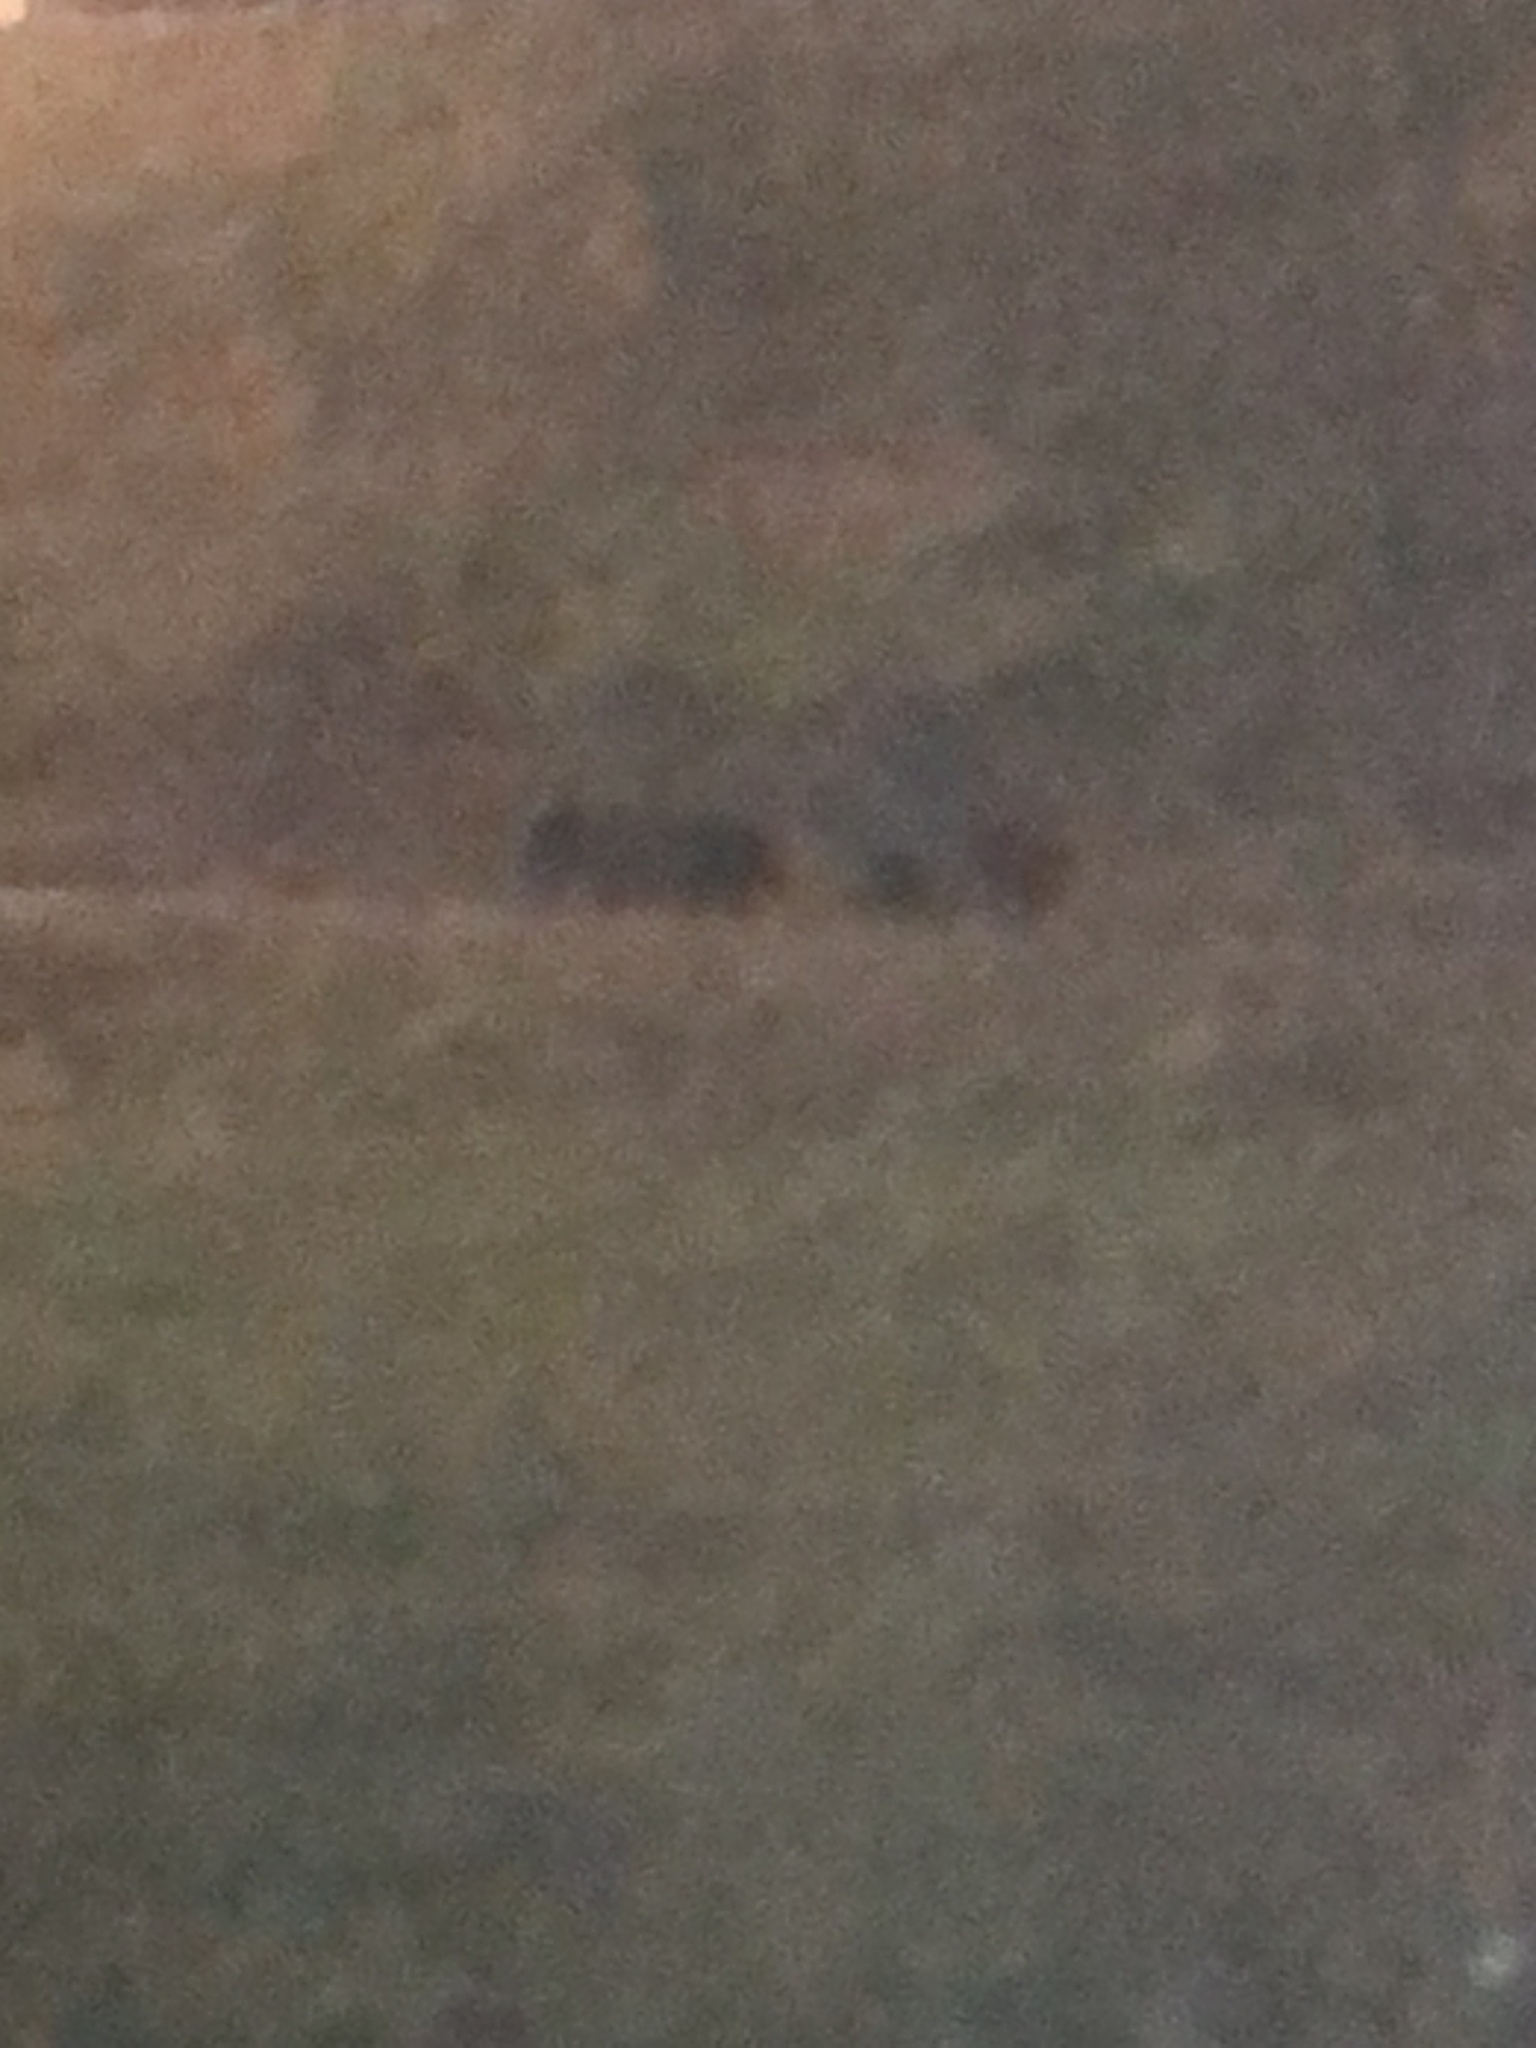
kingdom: Animalia
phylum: Chordata
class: Mammalia
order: Artiodactyla
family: Suidae
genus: Sus
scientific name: Sus scrofa
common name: Wild boar
